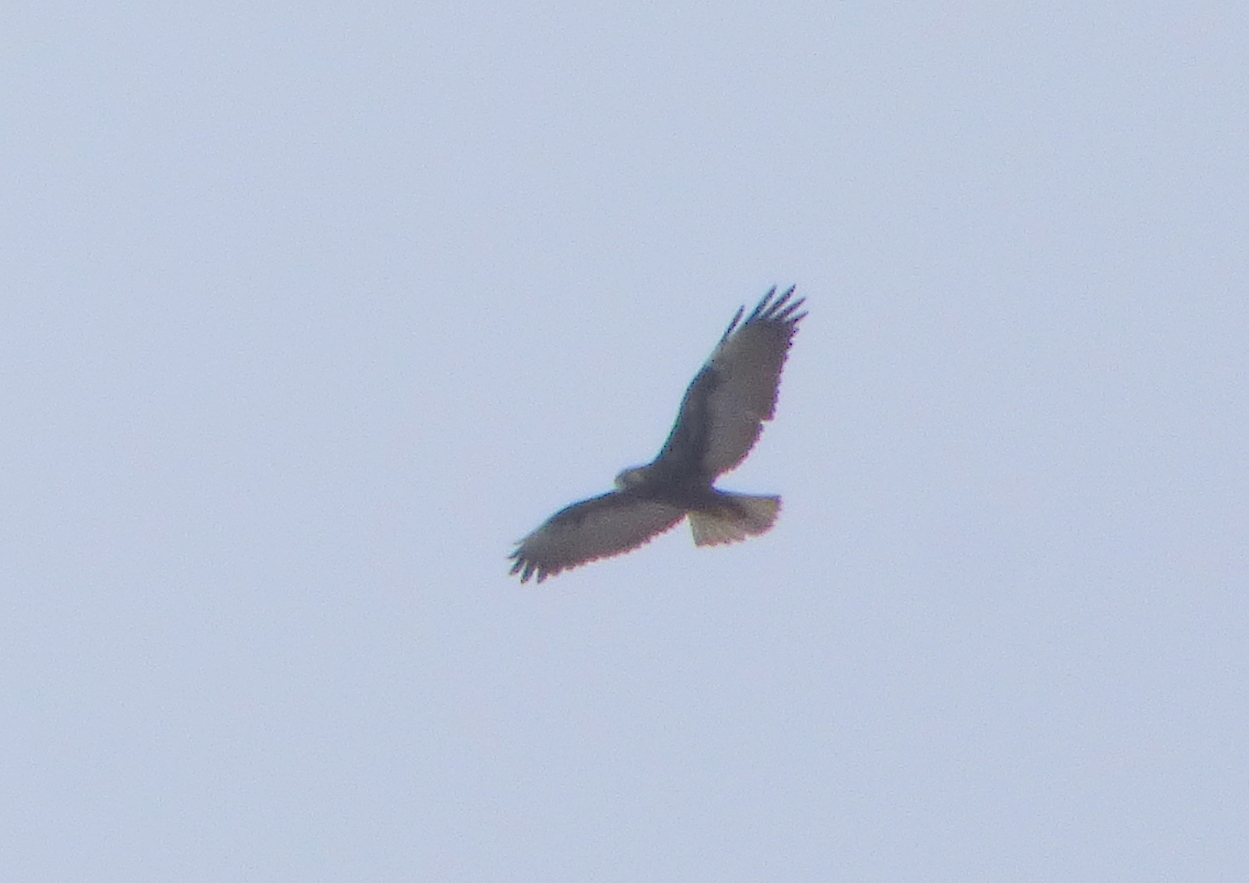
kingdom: Animalia
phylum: Chordata
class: Aves
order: Accipitriformes
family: Accipitridae
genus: Buteo
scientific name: Buteo albicaudatus
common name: White-tailed hawk
